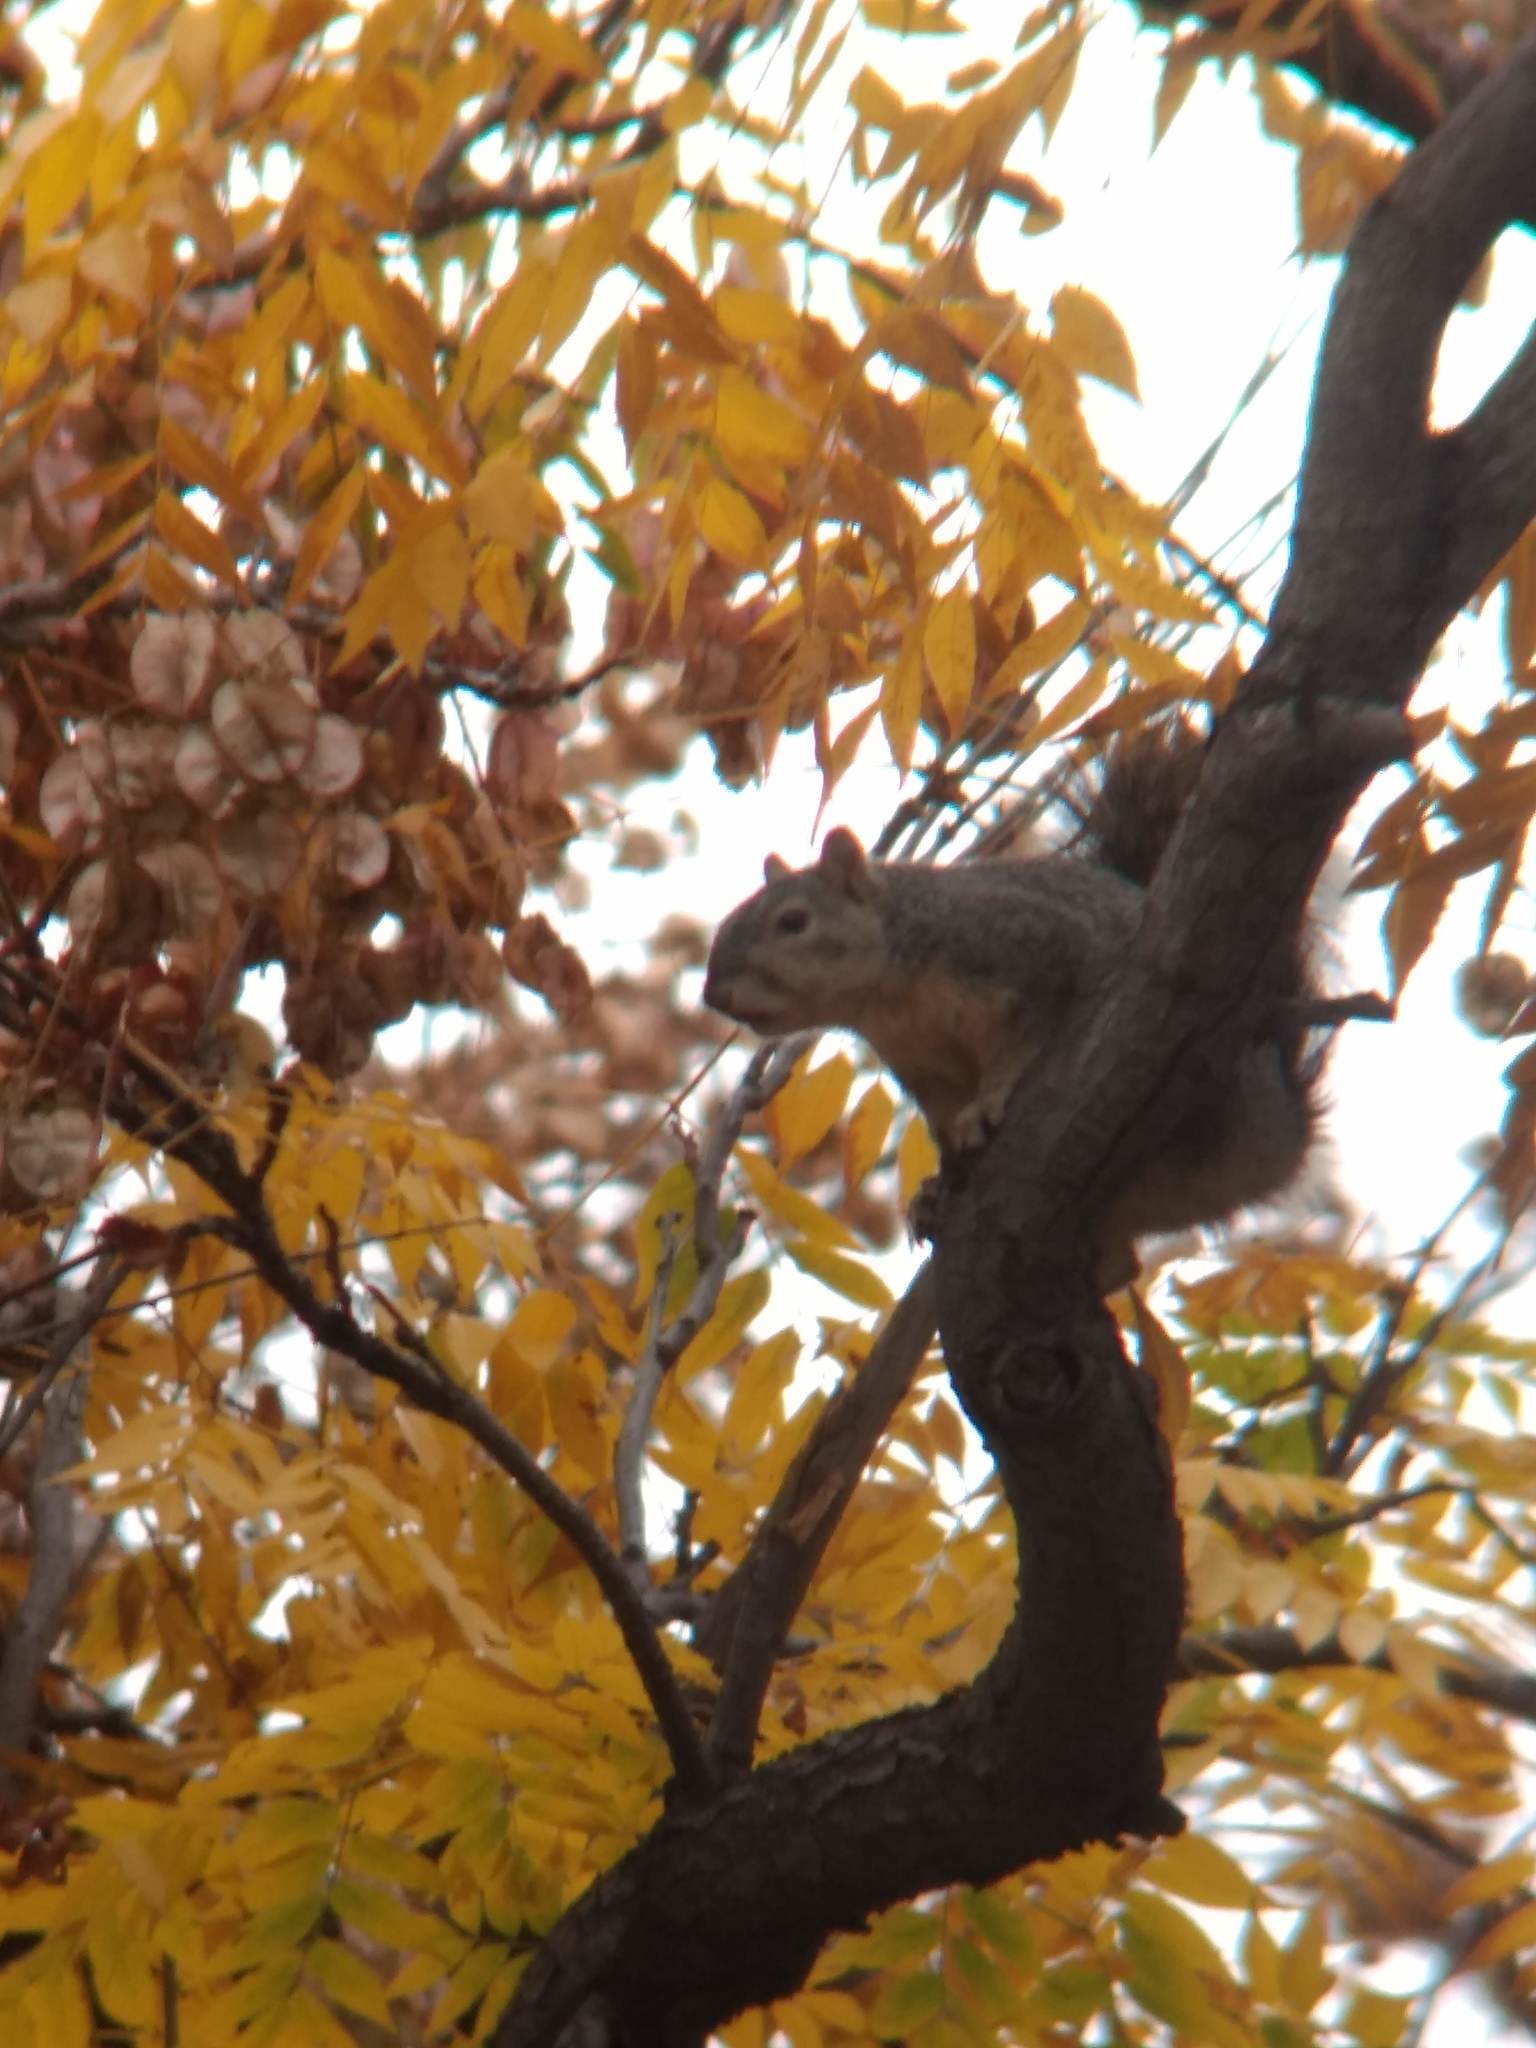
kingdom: Animalia
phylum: Chordata
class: Mammalia
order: Rodentia
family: Sciuridae
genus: Sciurus
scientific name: Sciurus niger
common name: Fox squirrel
